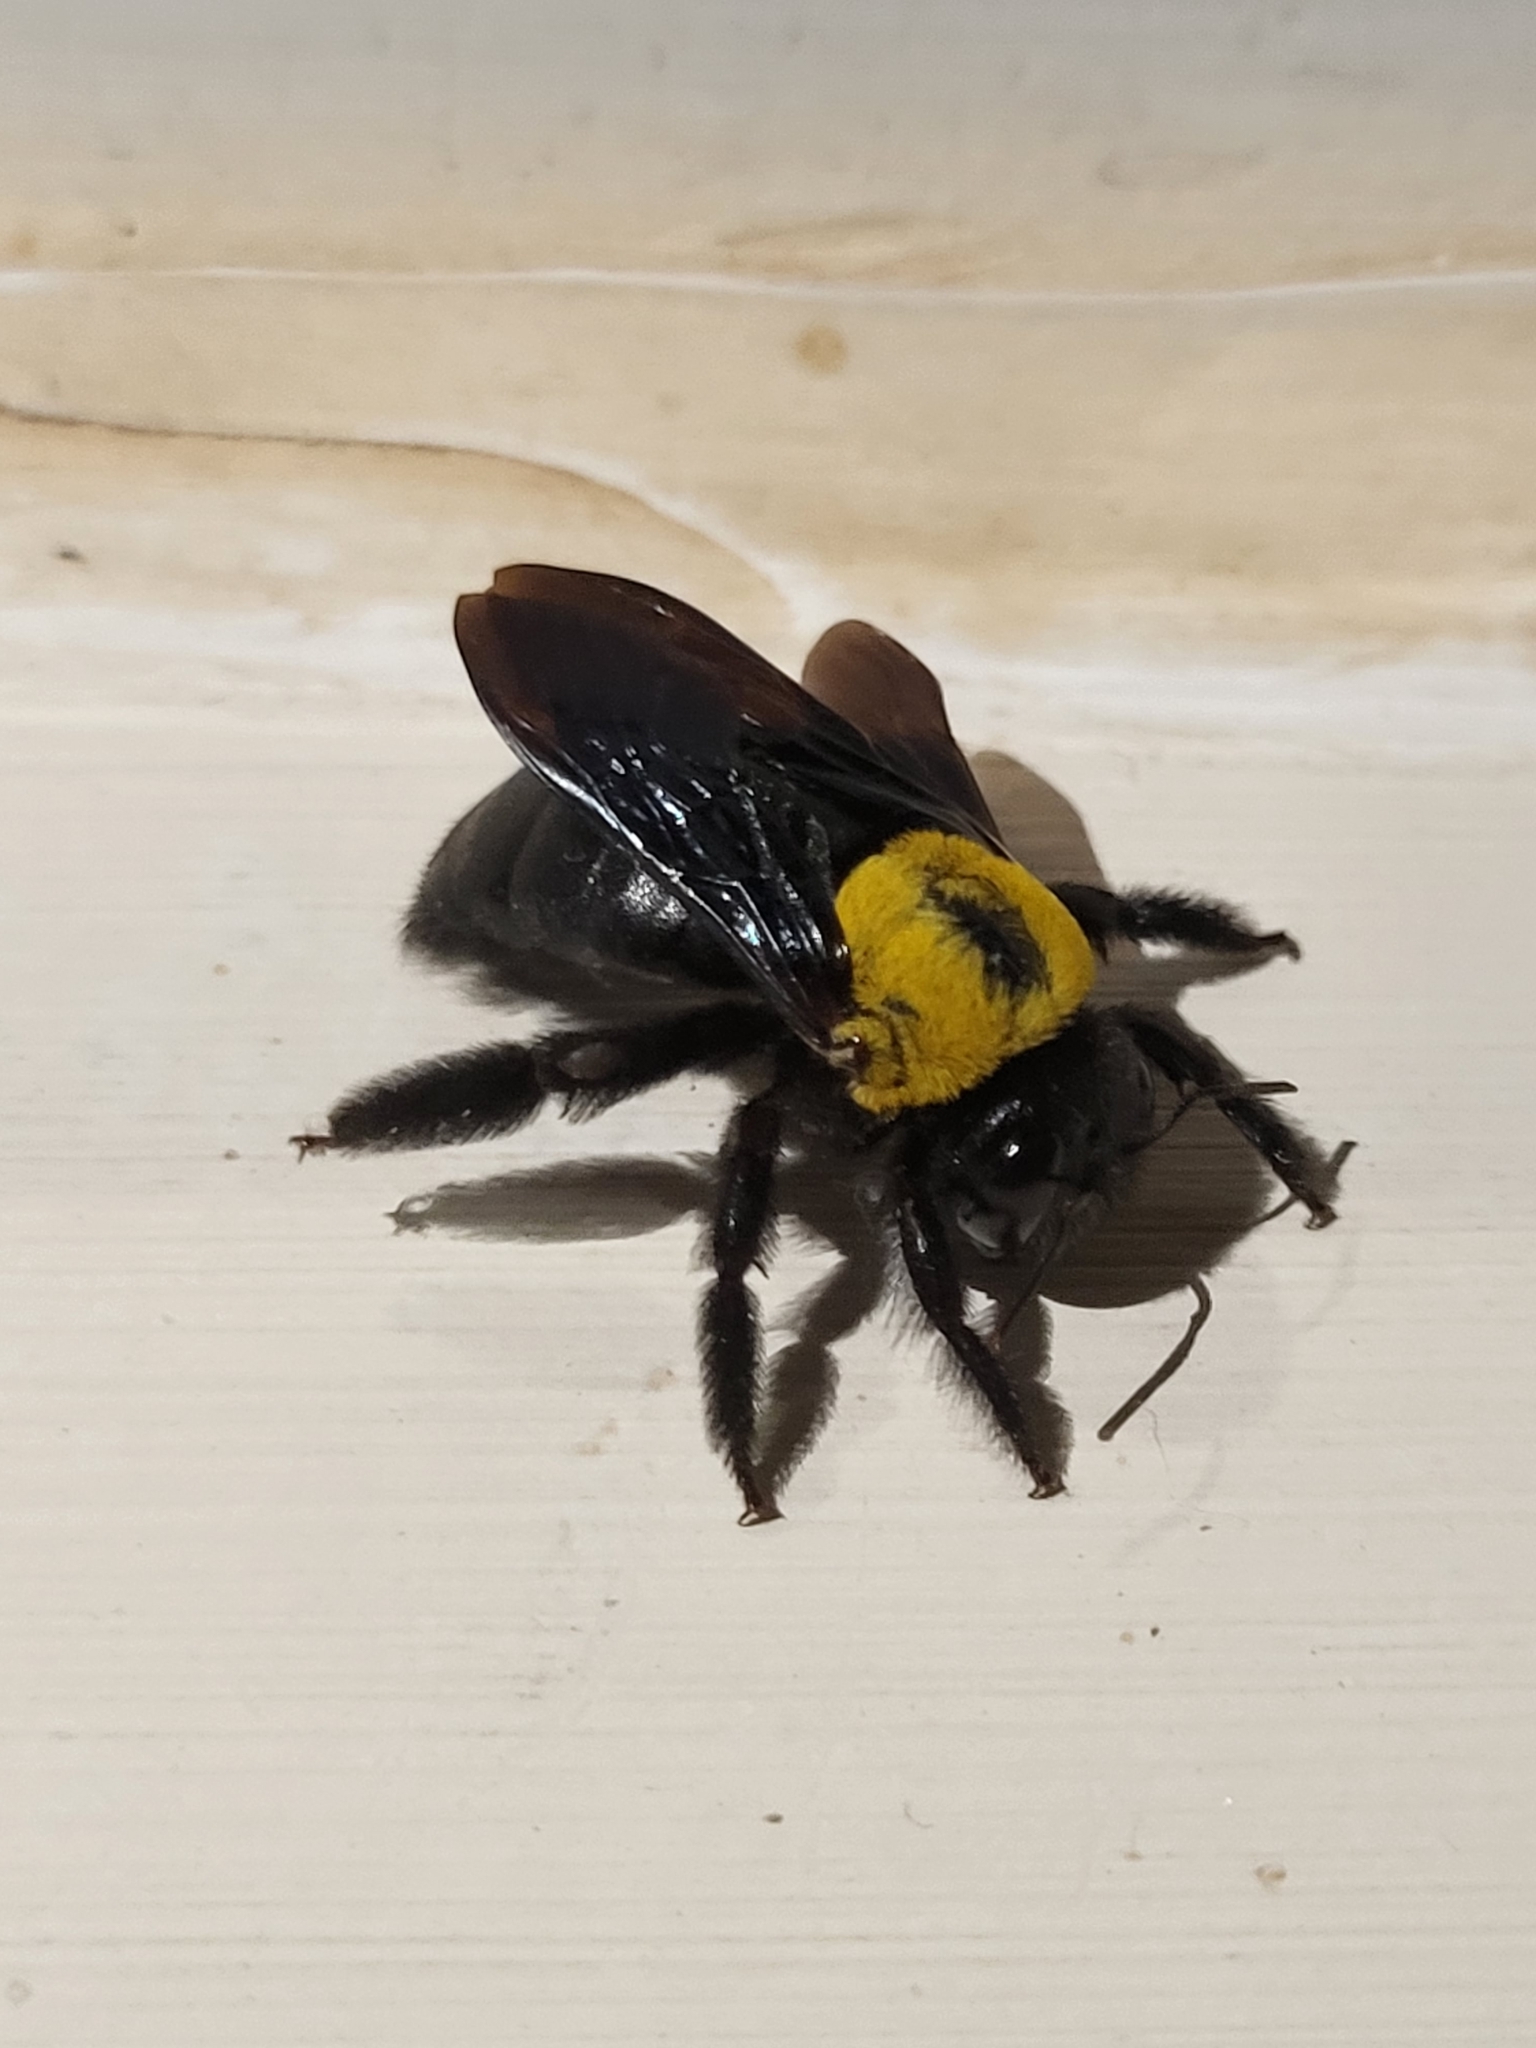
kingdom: Animalia
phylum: Arthropoda
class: Insecta
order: Hymenoptera
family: Apidae
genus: Xylocopa
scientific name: Xylocopa pubescens
